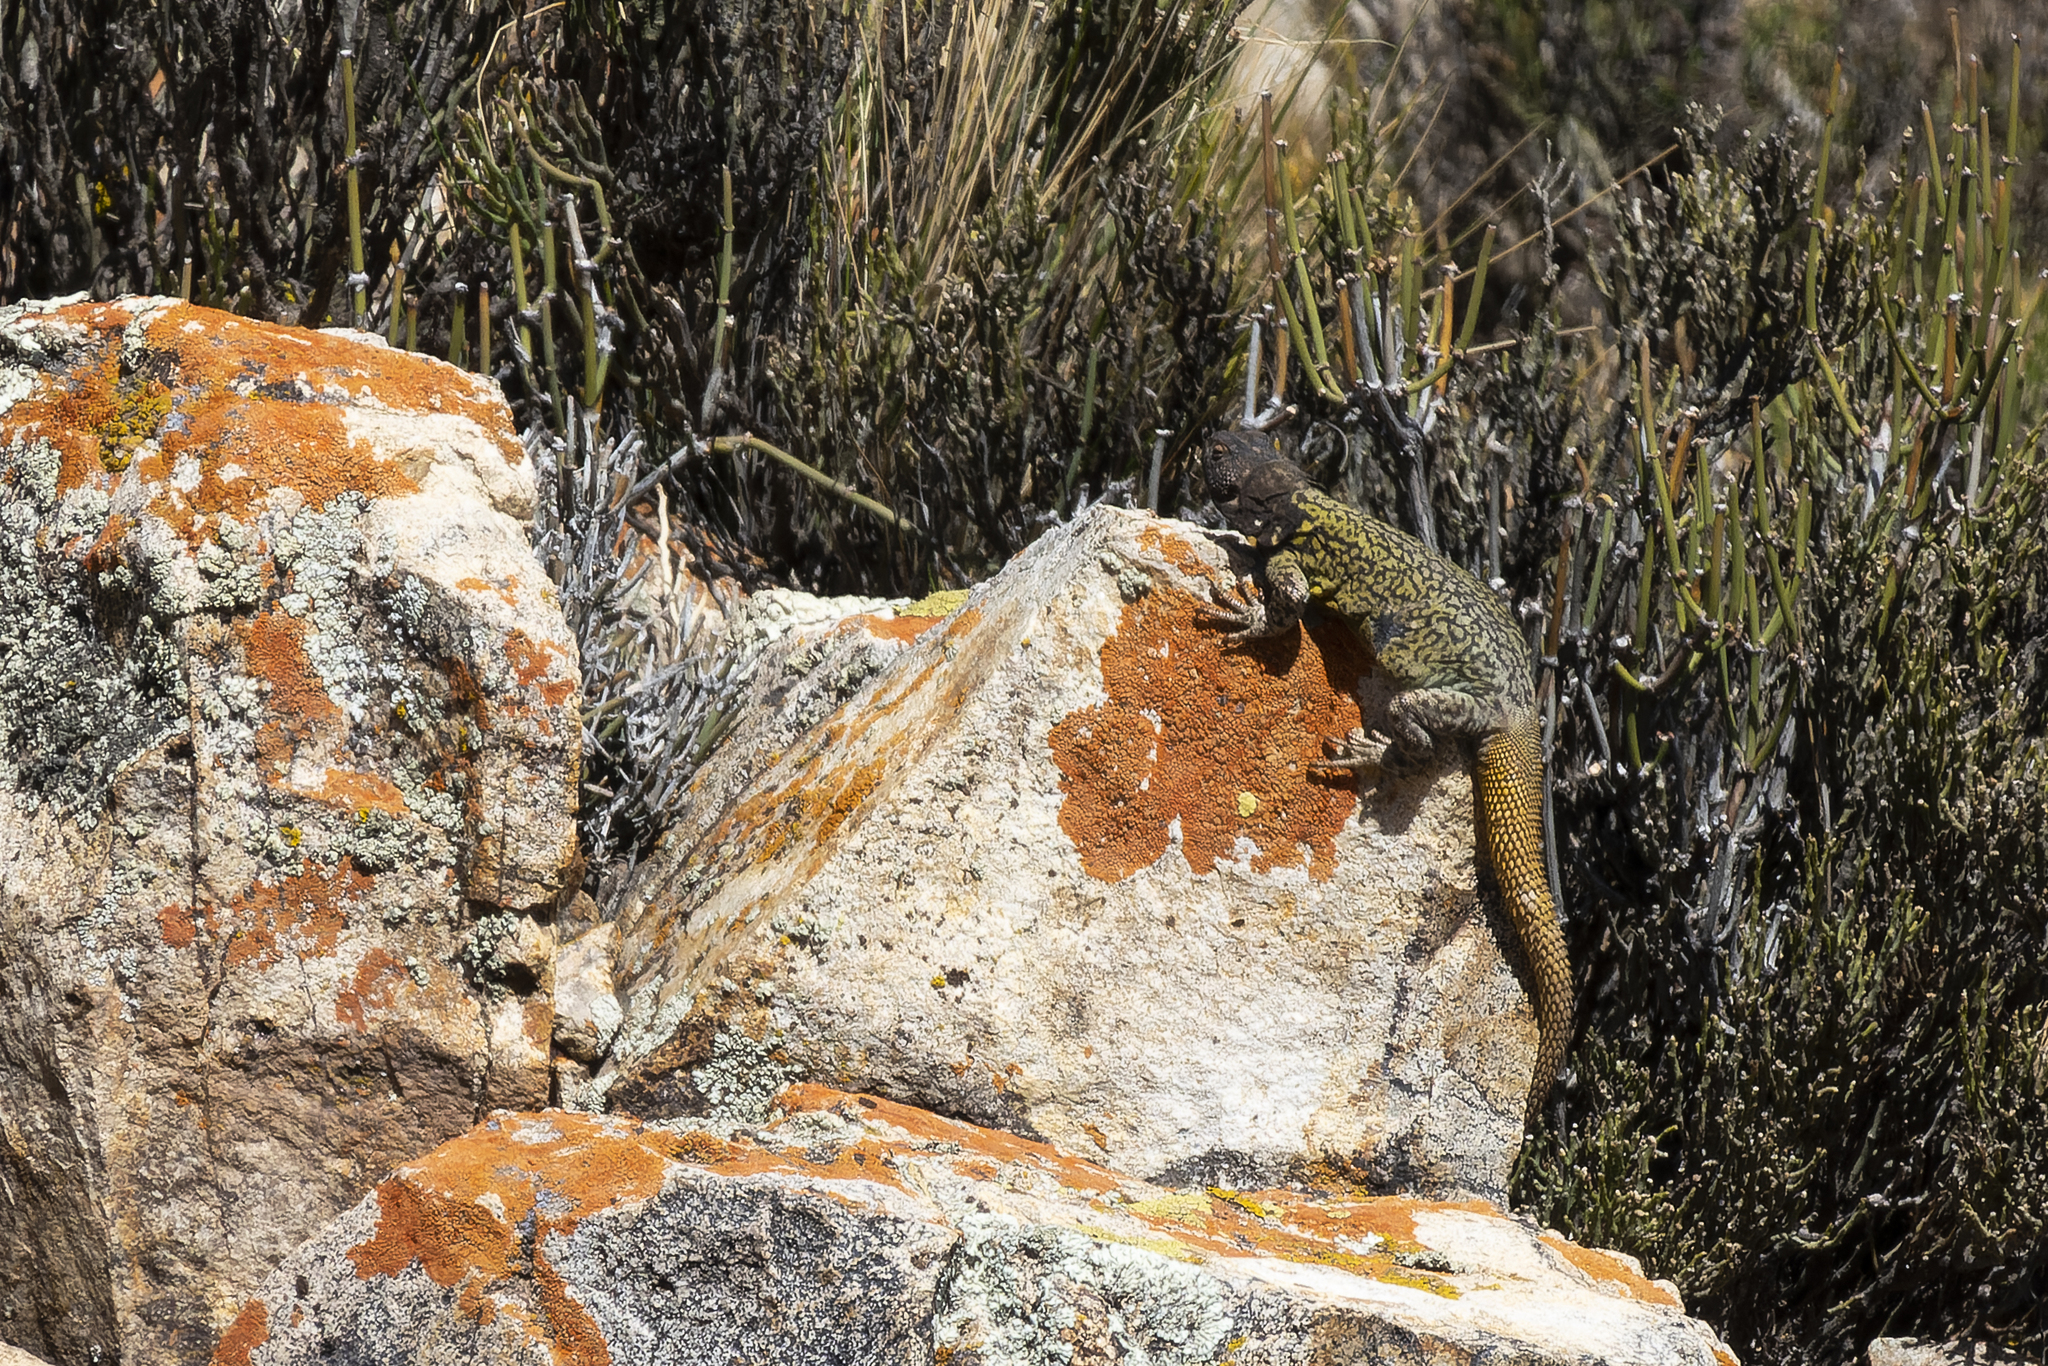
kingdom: Animalia
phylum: Chordata
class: Squamata
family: Liolaemidae
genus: Phymaturus
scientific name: Phymaturus palluma
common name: High mountain lizard
